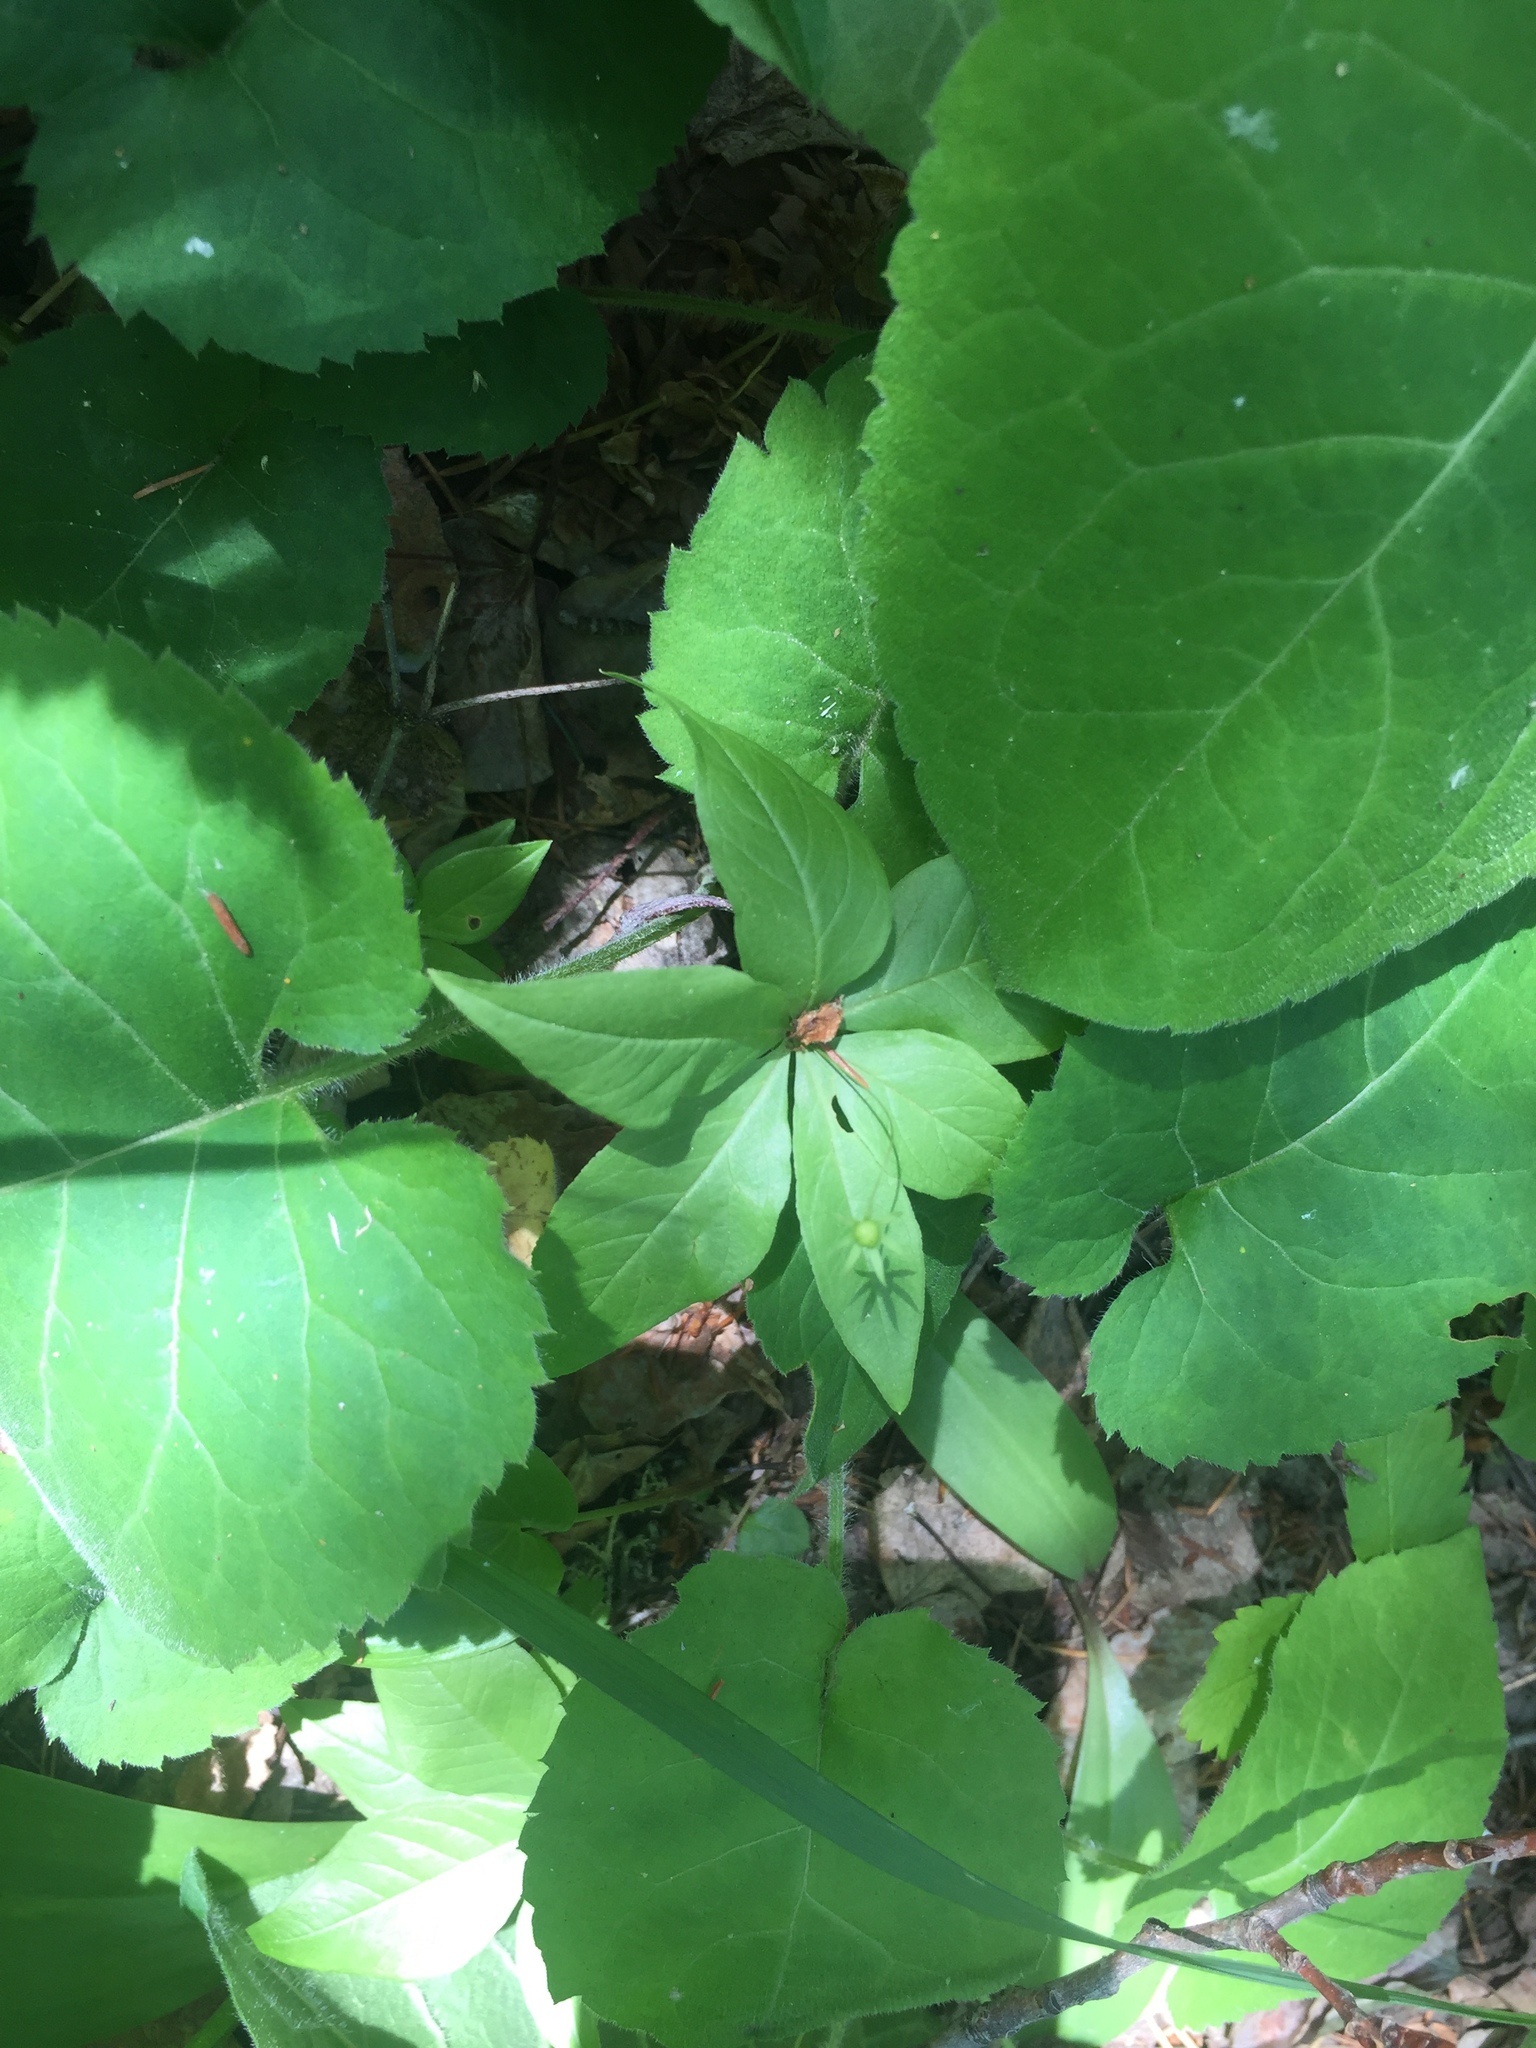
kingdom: Plantae
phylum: Tracheophyta
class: Magnoliopsida
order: Ericales
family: Primulaceae
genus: Lysimachia
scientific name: Lysimachia borealis
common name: American starflower
